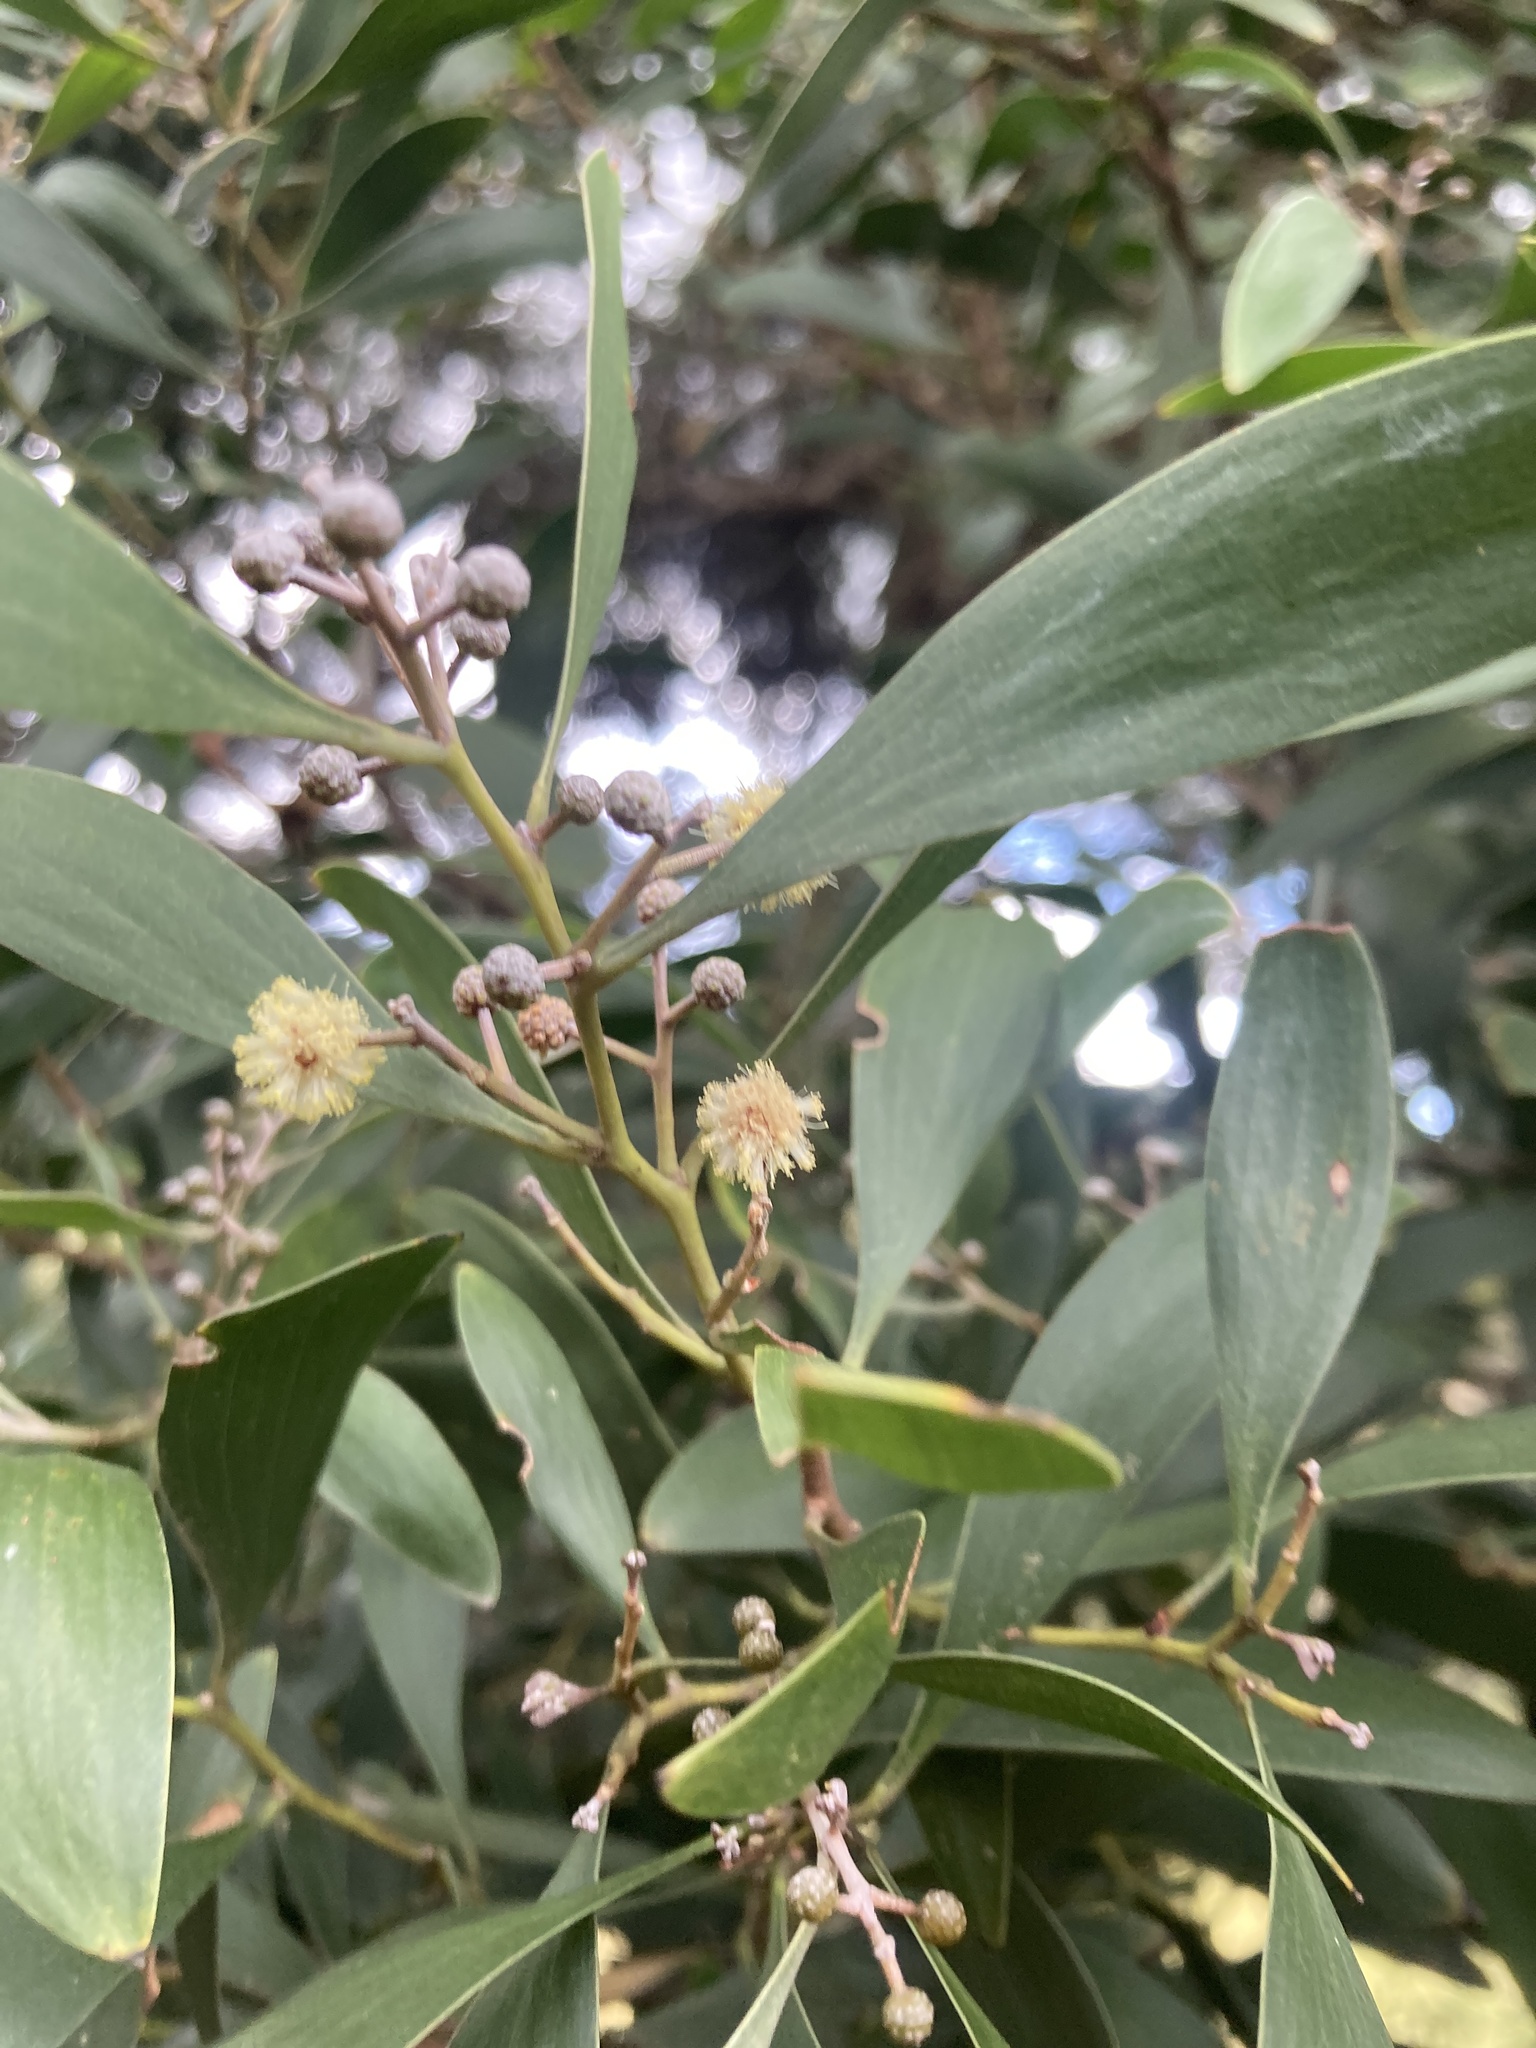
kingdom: Plantae
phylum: Tracheophyta
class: Magnoliopsida
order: Fabales
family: Fabaceae
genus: Acacia
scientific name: Acacia melanoxylon
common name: Blackwood
